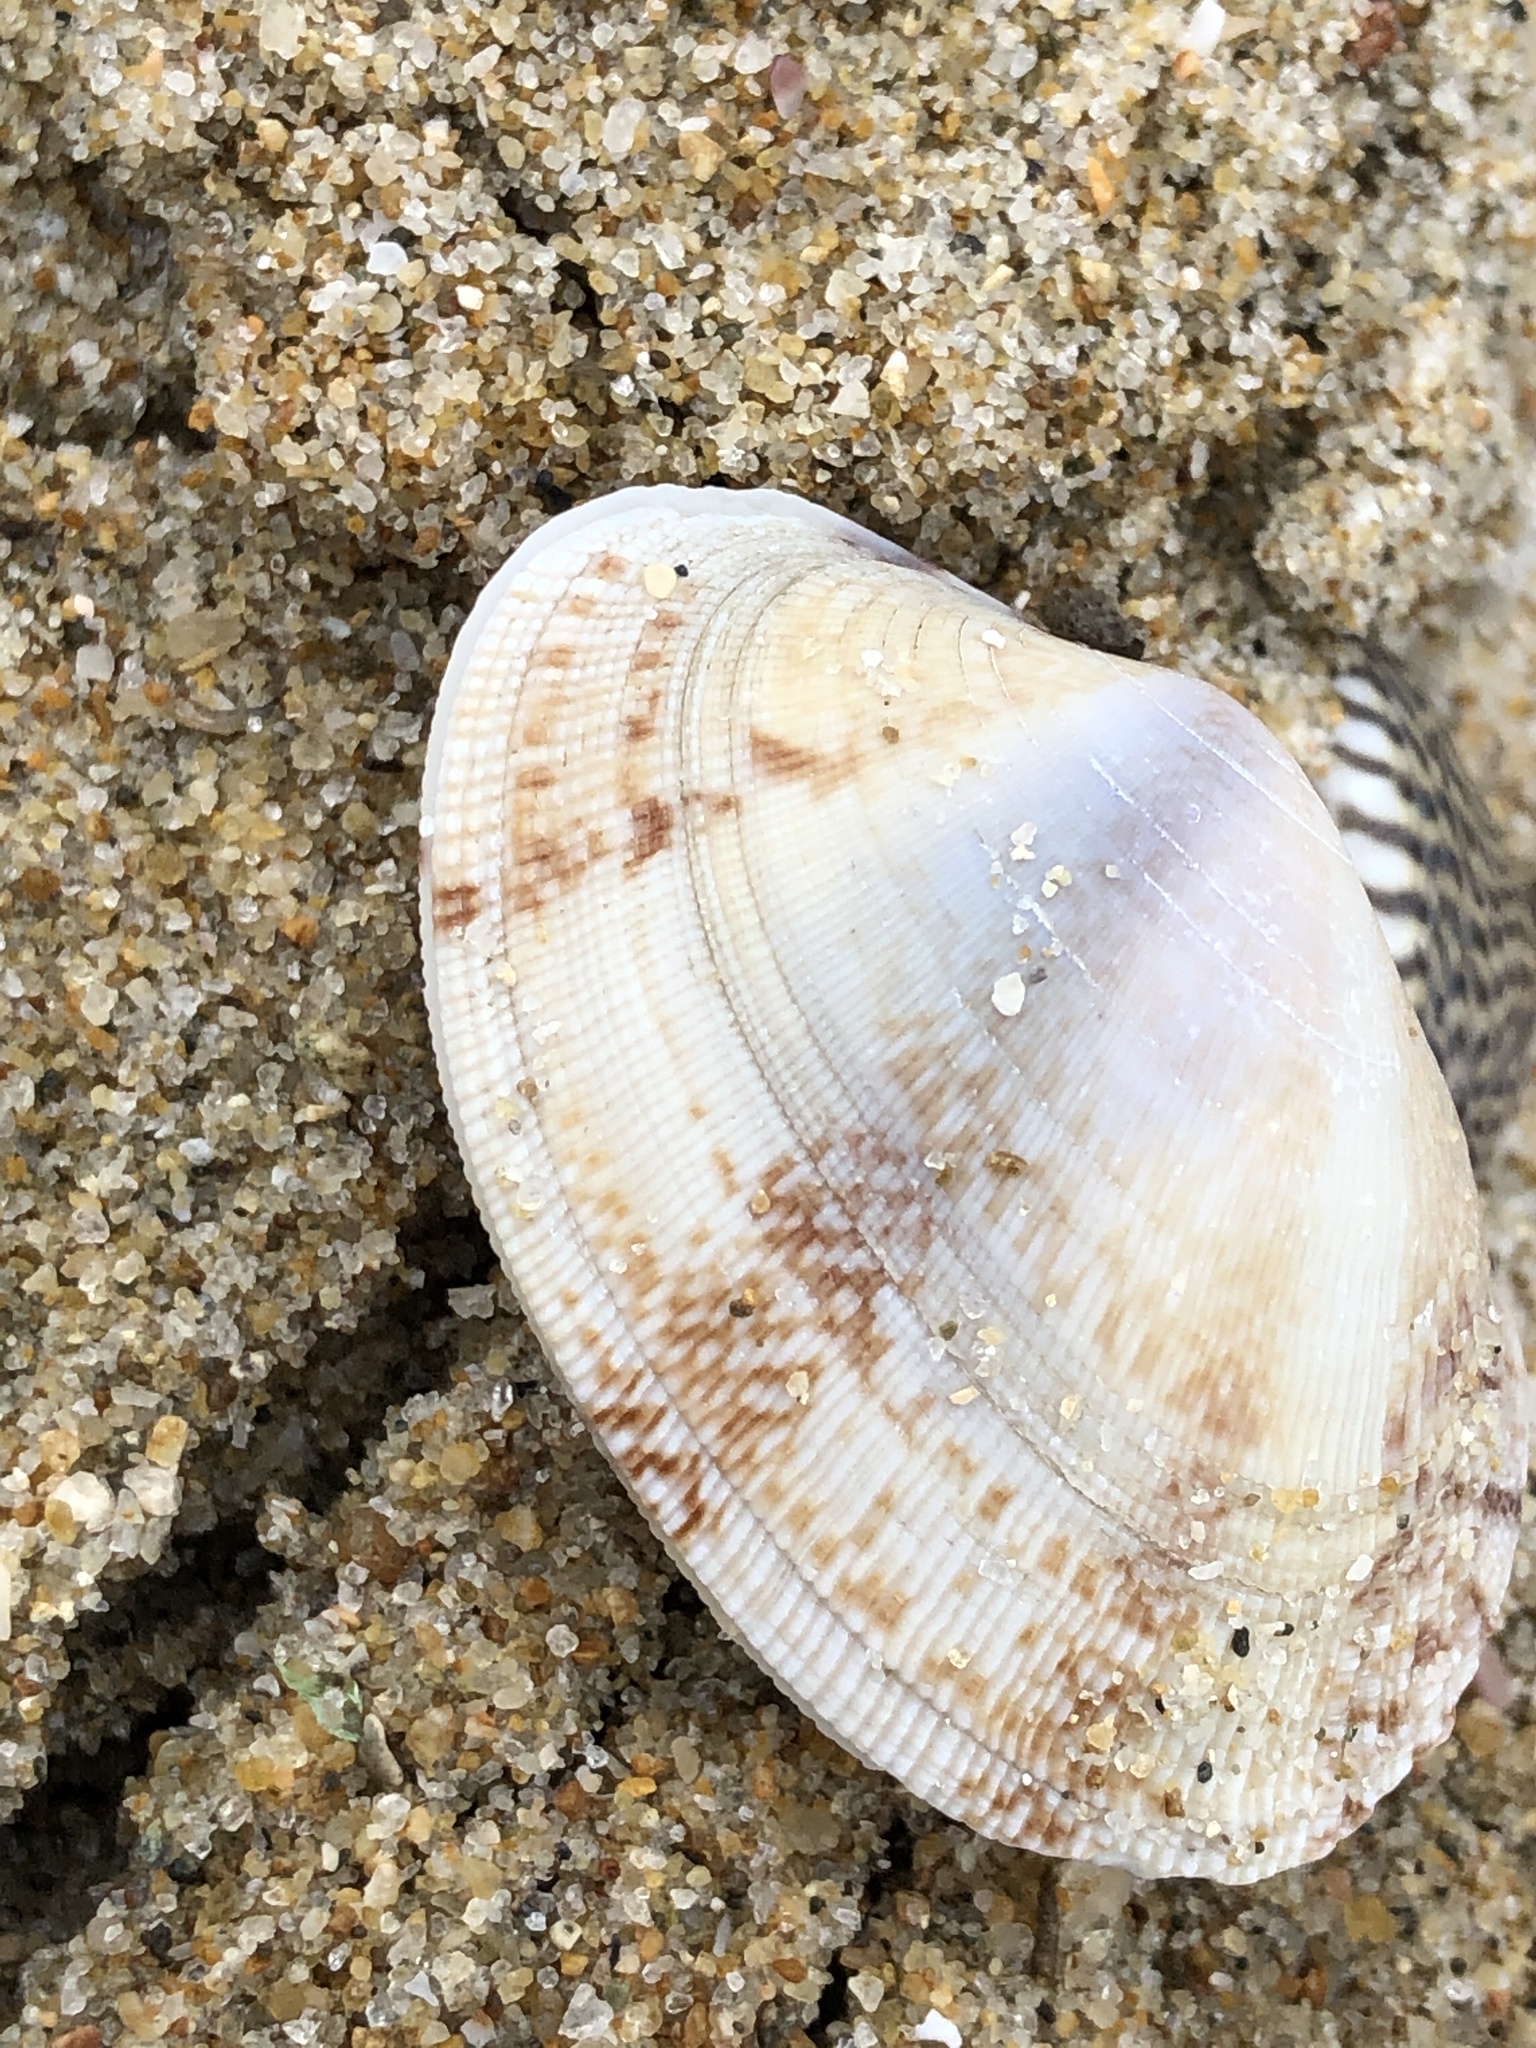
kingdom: Animalia
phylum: Mollusca
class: Bivalvia
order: Venerida
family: Veneridae
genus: Ruditapes
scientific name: Ruditapes philippinarum
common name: Manila clam
